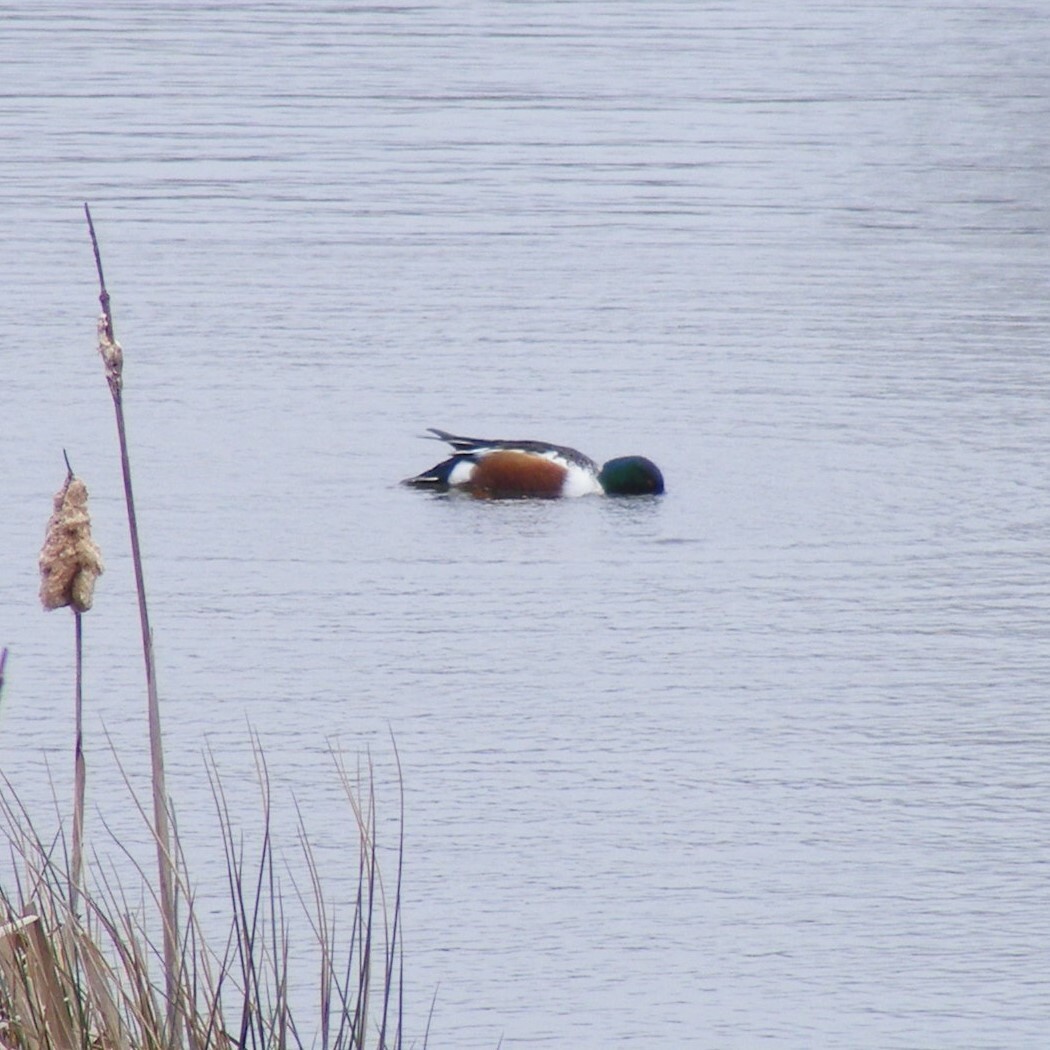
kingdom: Animalia
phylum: Chordata
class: Aves
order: Anseriformes
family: Anatidae
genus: Spatula
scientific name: Spatula clypeata
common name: Northern shoveler
